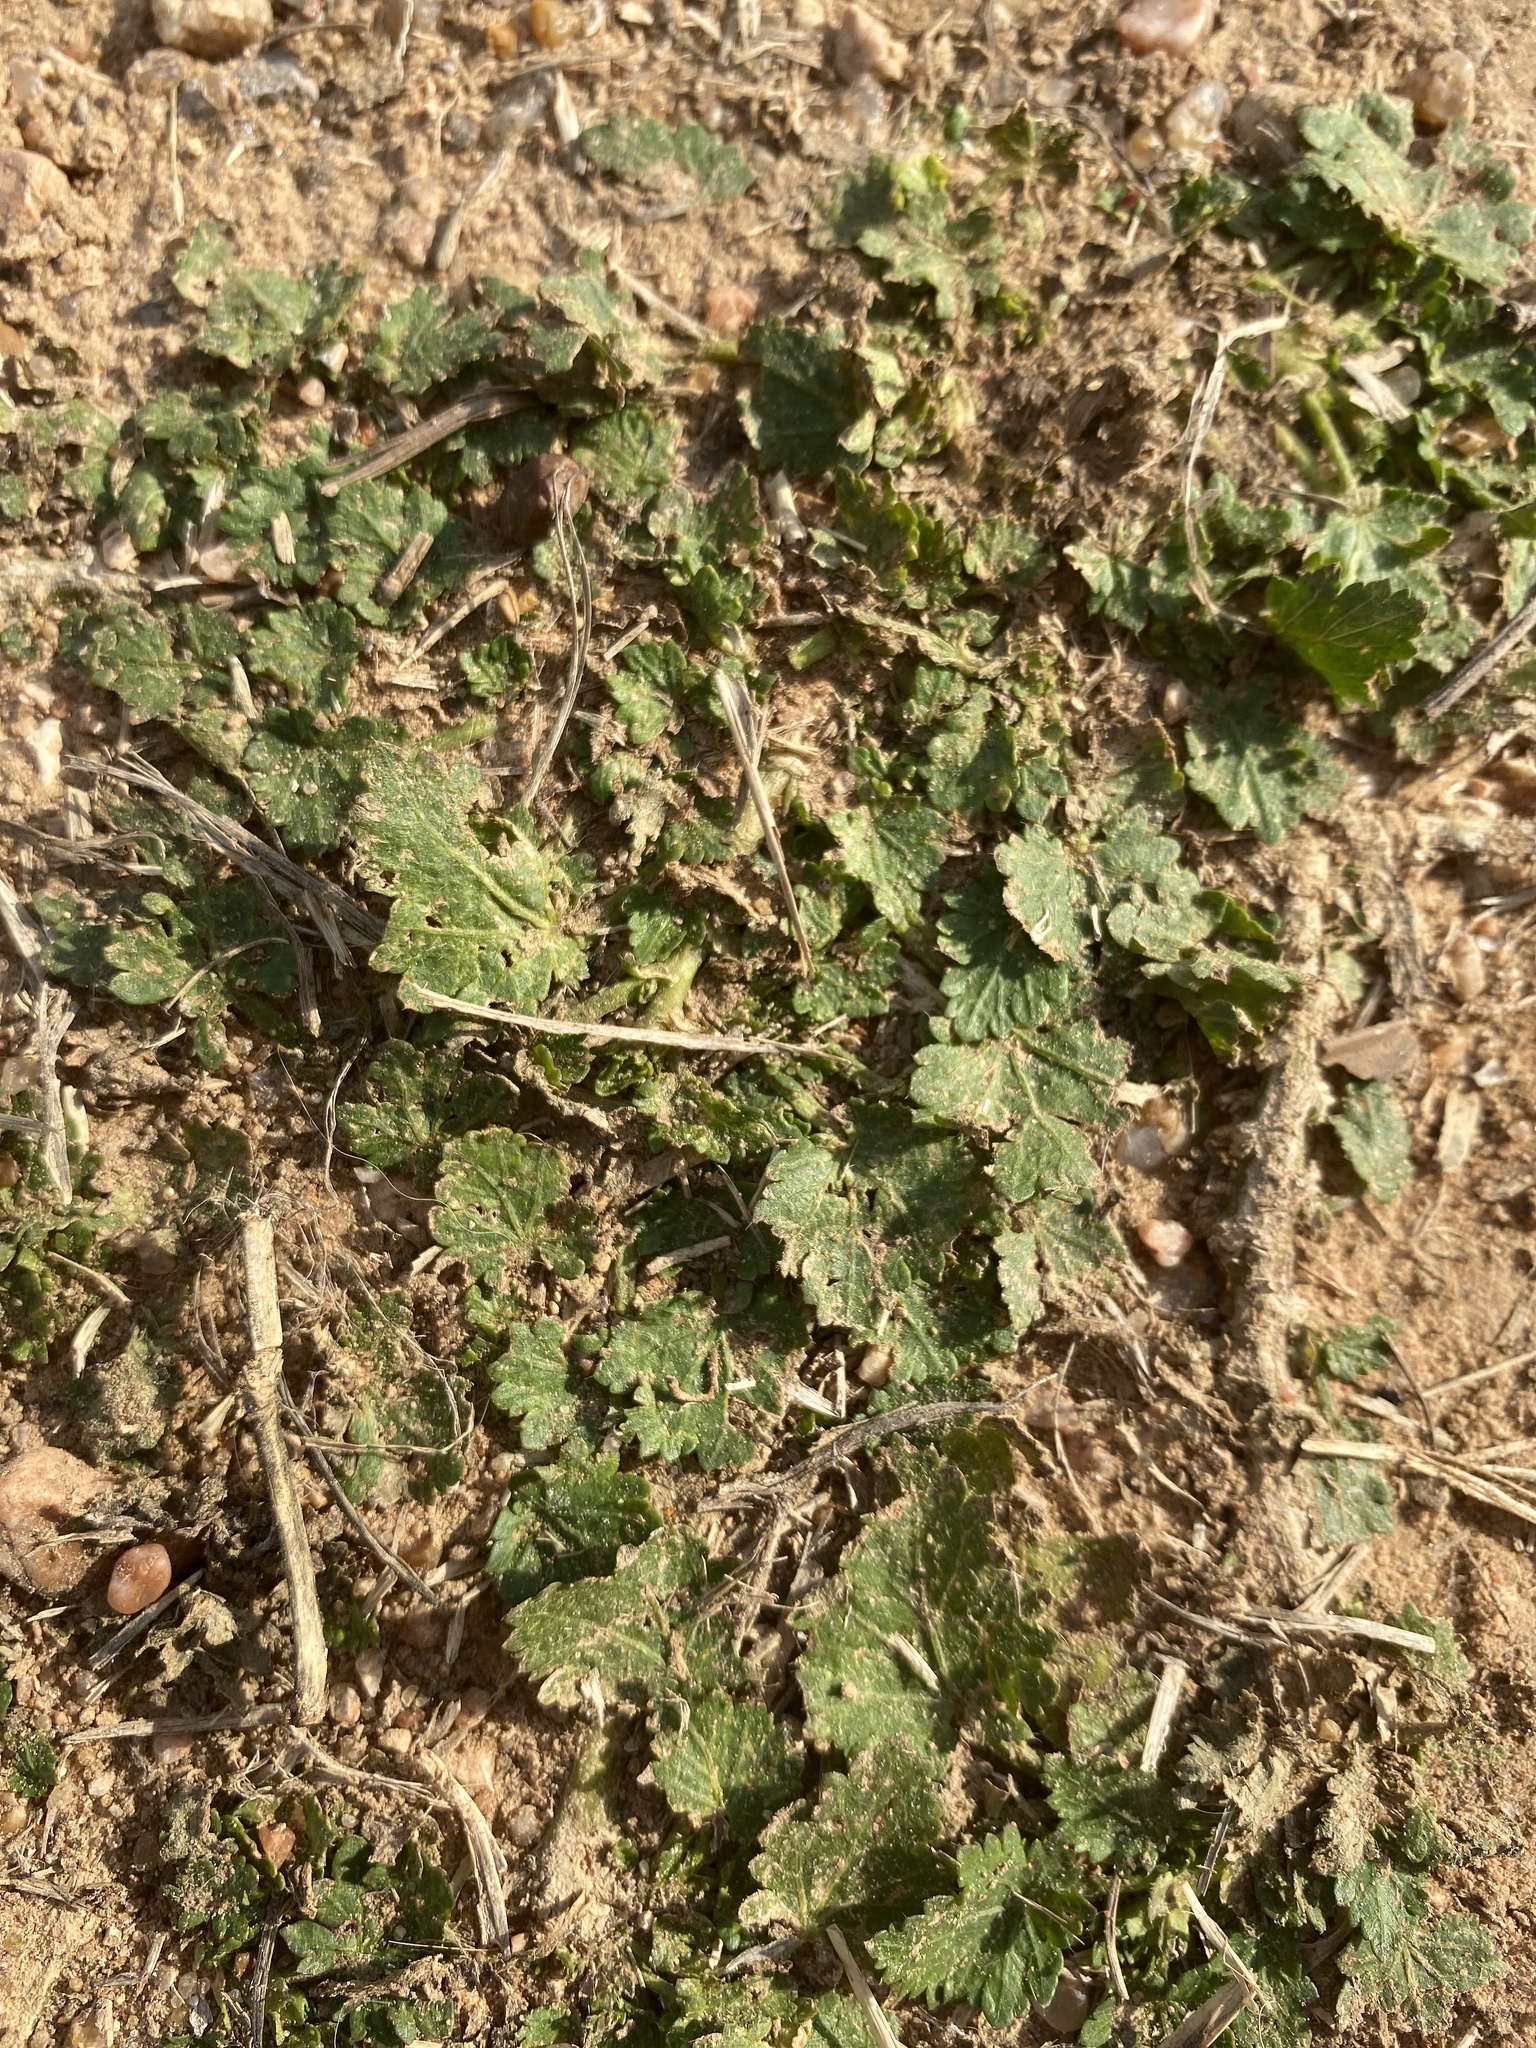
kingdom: Plantae
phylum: Tracheophyta
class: Magnoliopsida
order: Malvales
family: Malvaceae
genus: Modiola
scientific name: Modiola caroliniana
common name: Carolina bristlemallow
